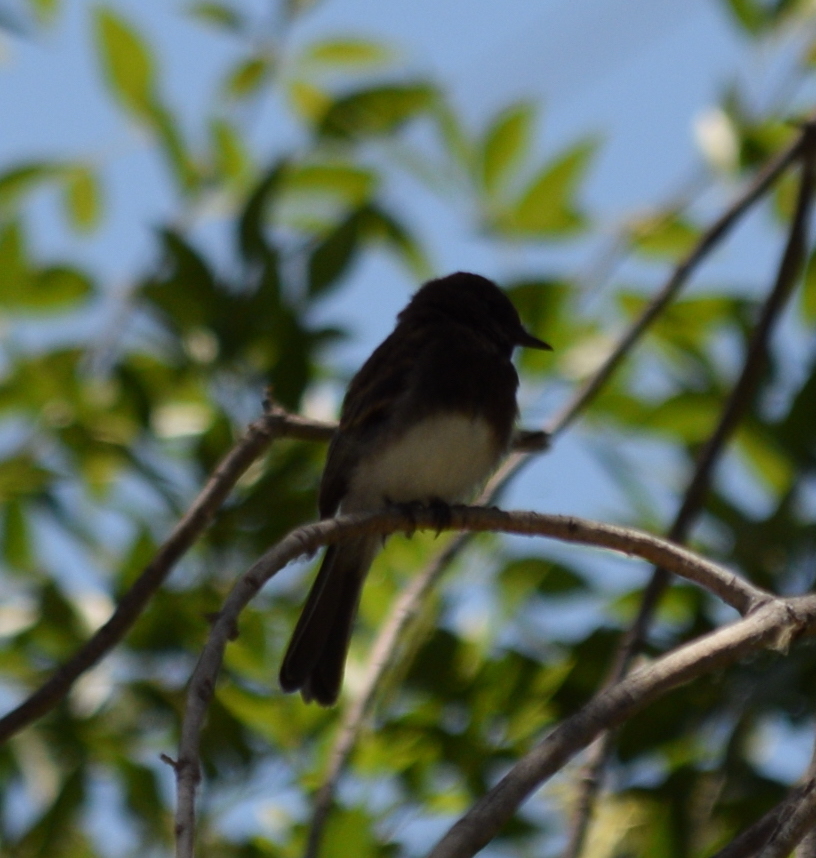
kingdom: Animalia
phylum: Chordata
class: Aves
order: Passeriformes
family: Tyrannidae
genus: Sayornis
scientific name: Sayornis nigricans
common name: Black phoebe
